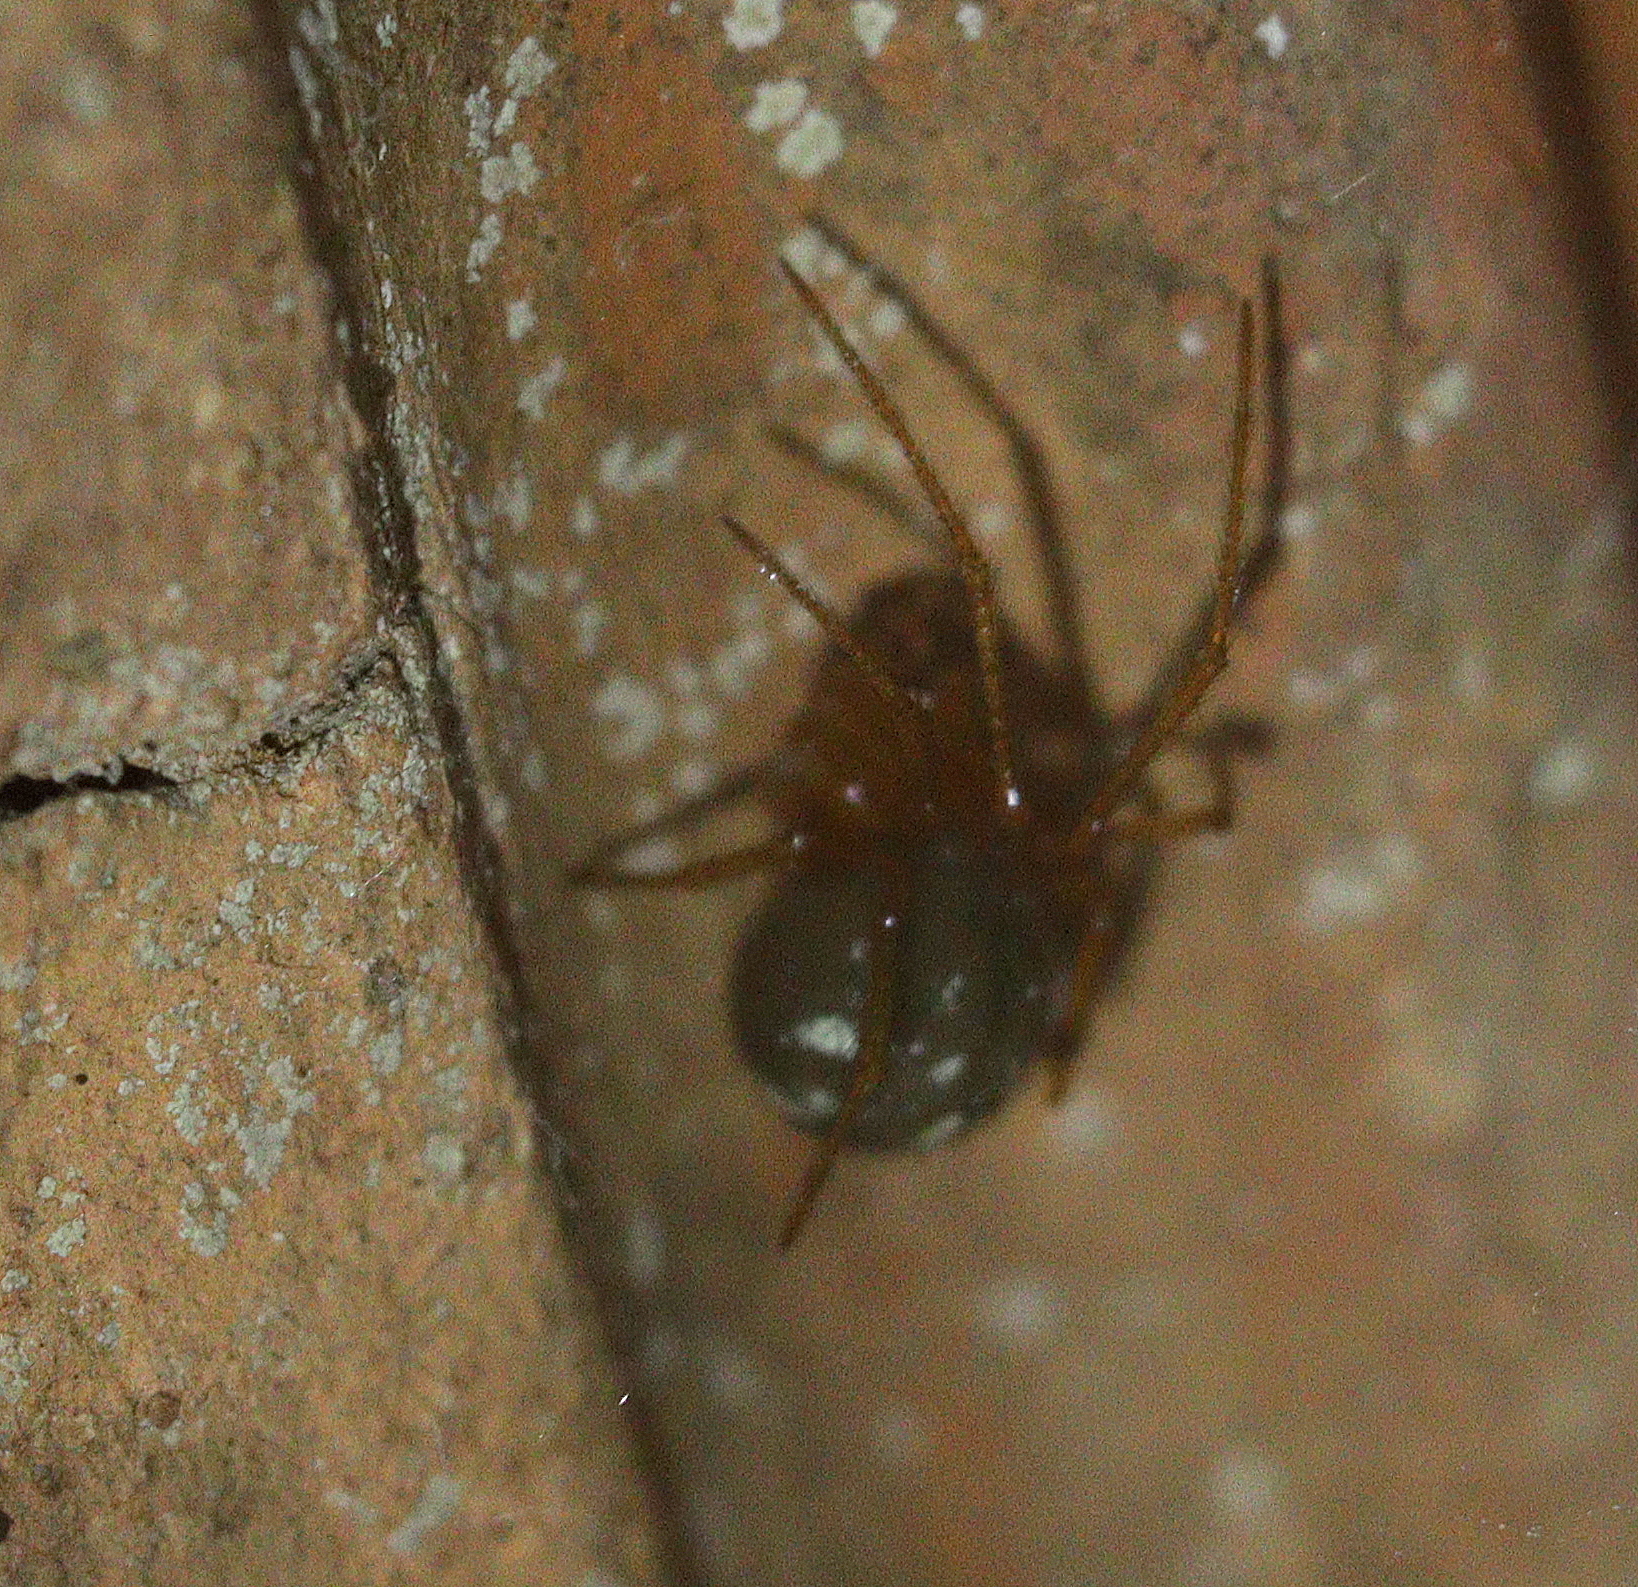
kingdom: Animalia
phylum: Arthropoda
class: Arachnida
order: Araneae
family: Theridiidae
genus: Nesticodes
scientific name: Nesticodes rufipes
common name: Cobweb spiders
